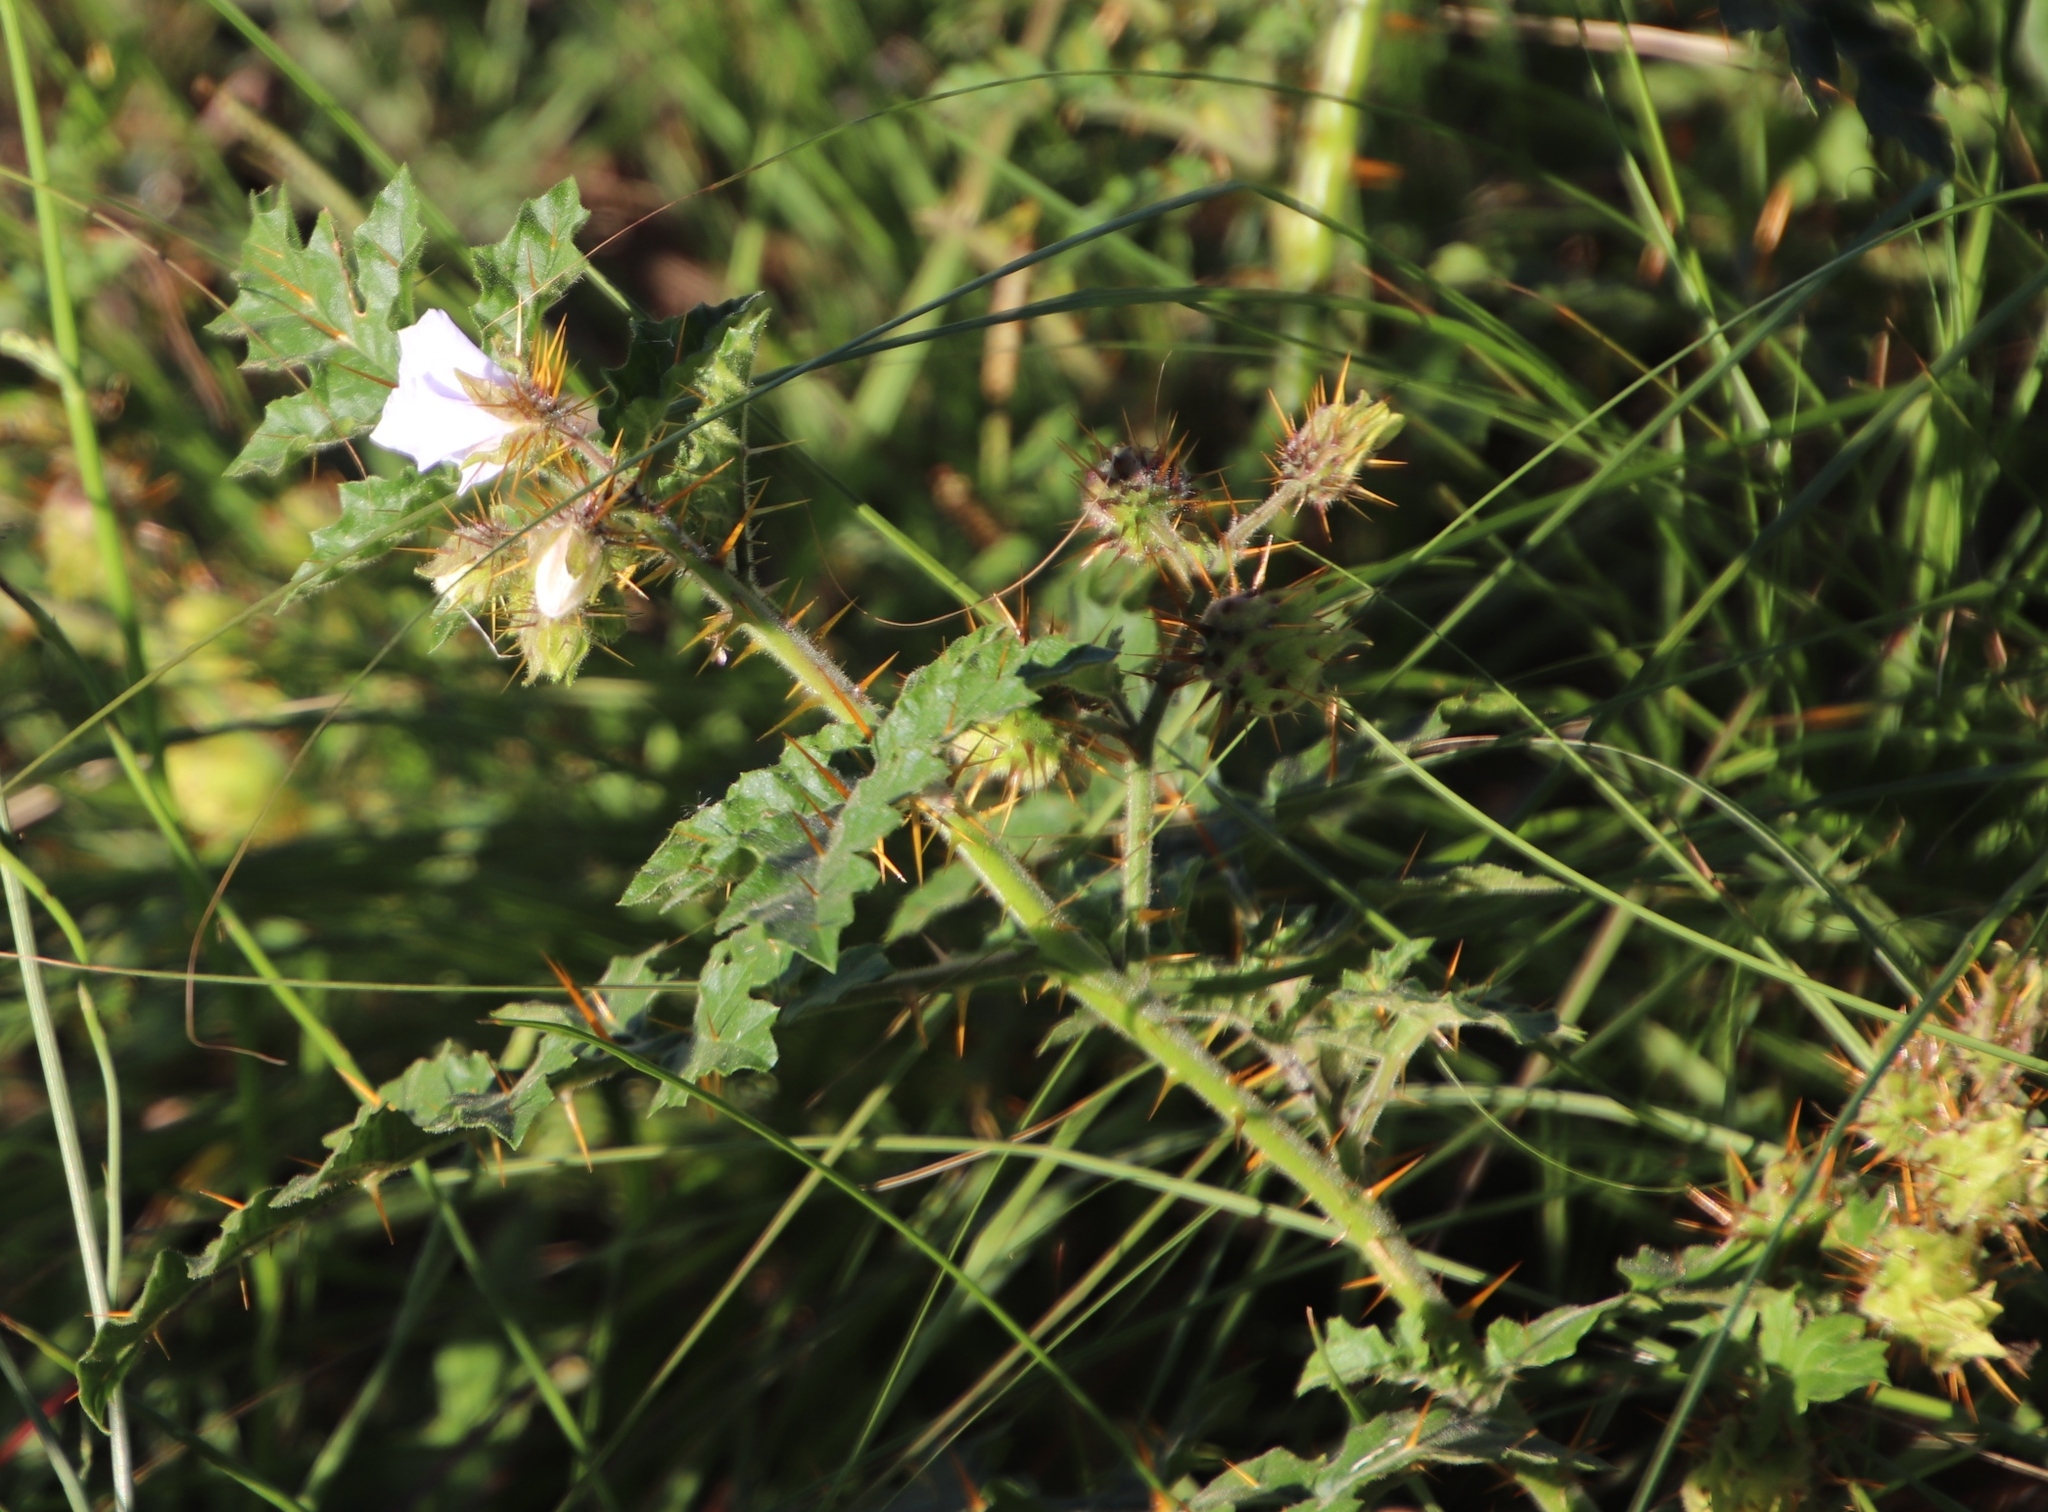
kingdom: Plantae
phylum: Tracheophyta
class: Magnoliopsida
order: Solanales
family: Solanaceae
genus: Solanum
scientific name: Solanum sisymbriifolium
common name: Red buffalo-bur
